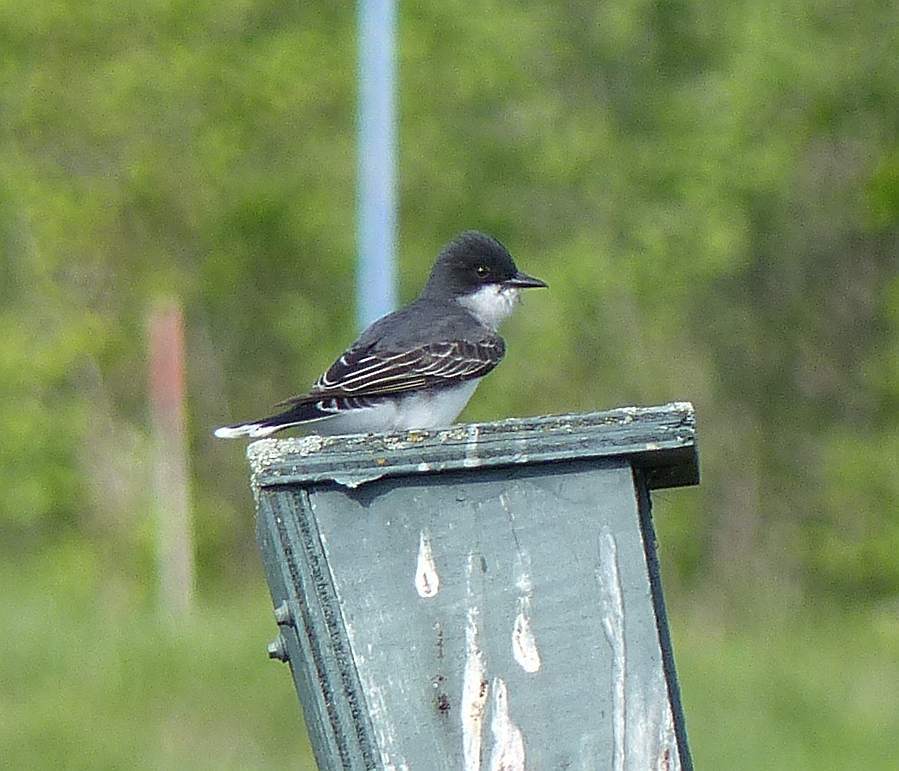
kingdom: Animalia
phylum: Chordata
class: Aves
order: Passeriformes
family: Tyrannidae
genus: Tyrannus
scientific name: Tyrannus tyrannus
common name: Eastern kingbird
